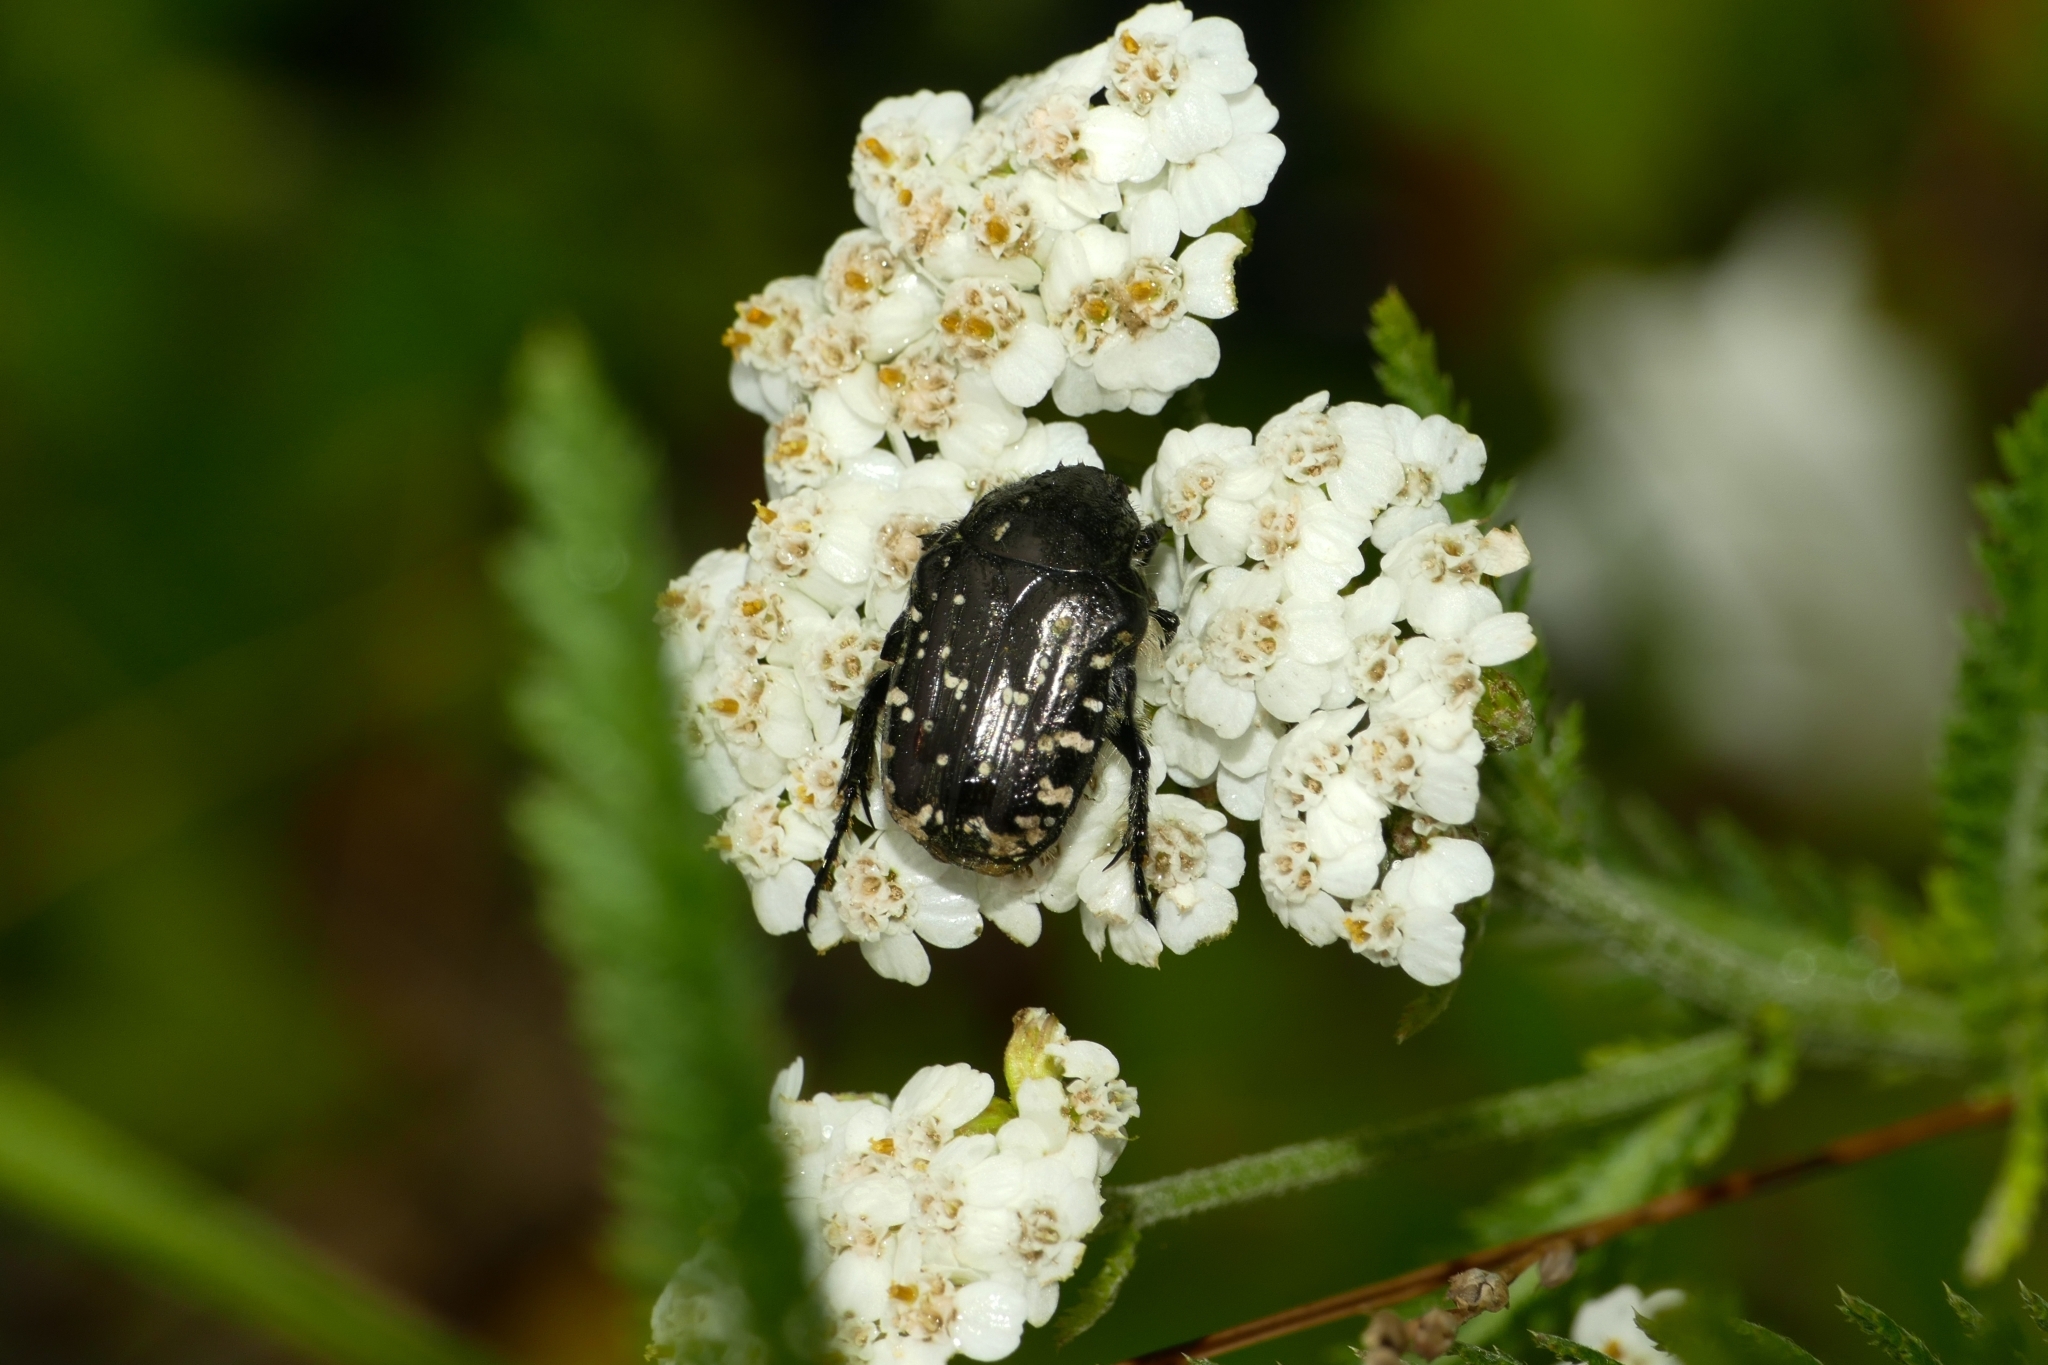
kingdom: Animalia
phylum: Arthropoda
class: Insecta
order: Coleoptera
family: Scarabaeidae
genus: Oxythyrea
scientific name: Oxythyrea funesta
